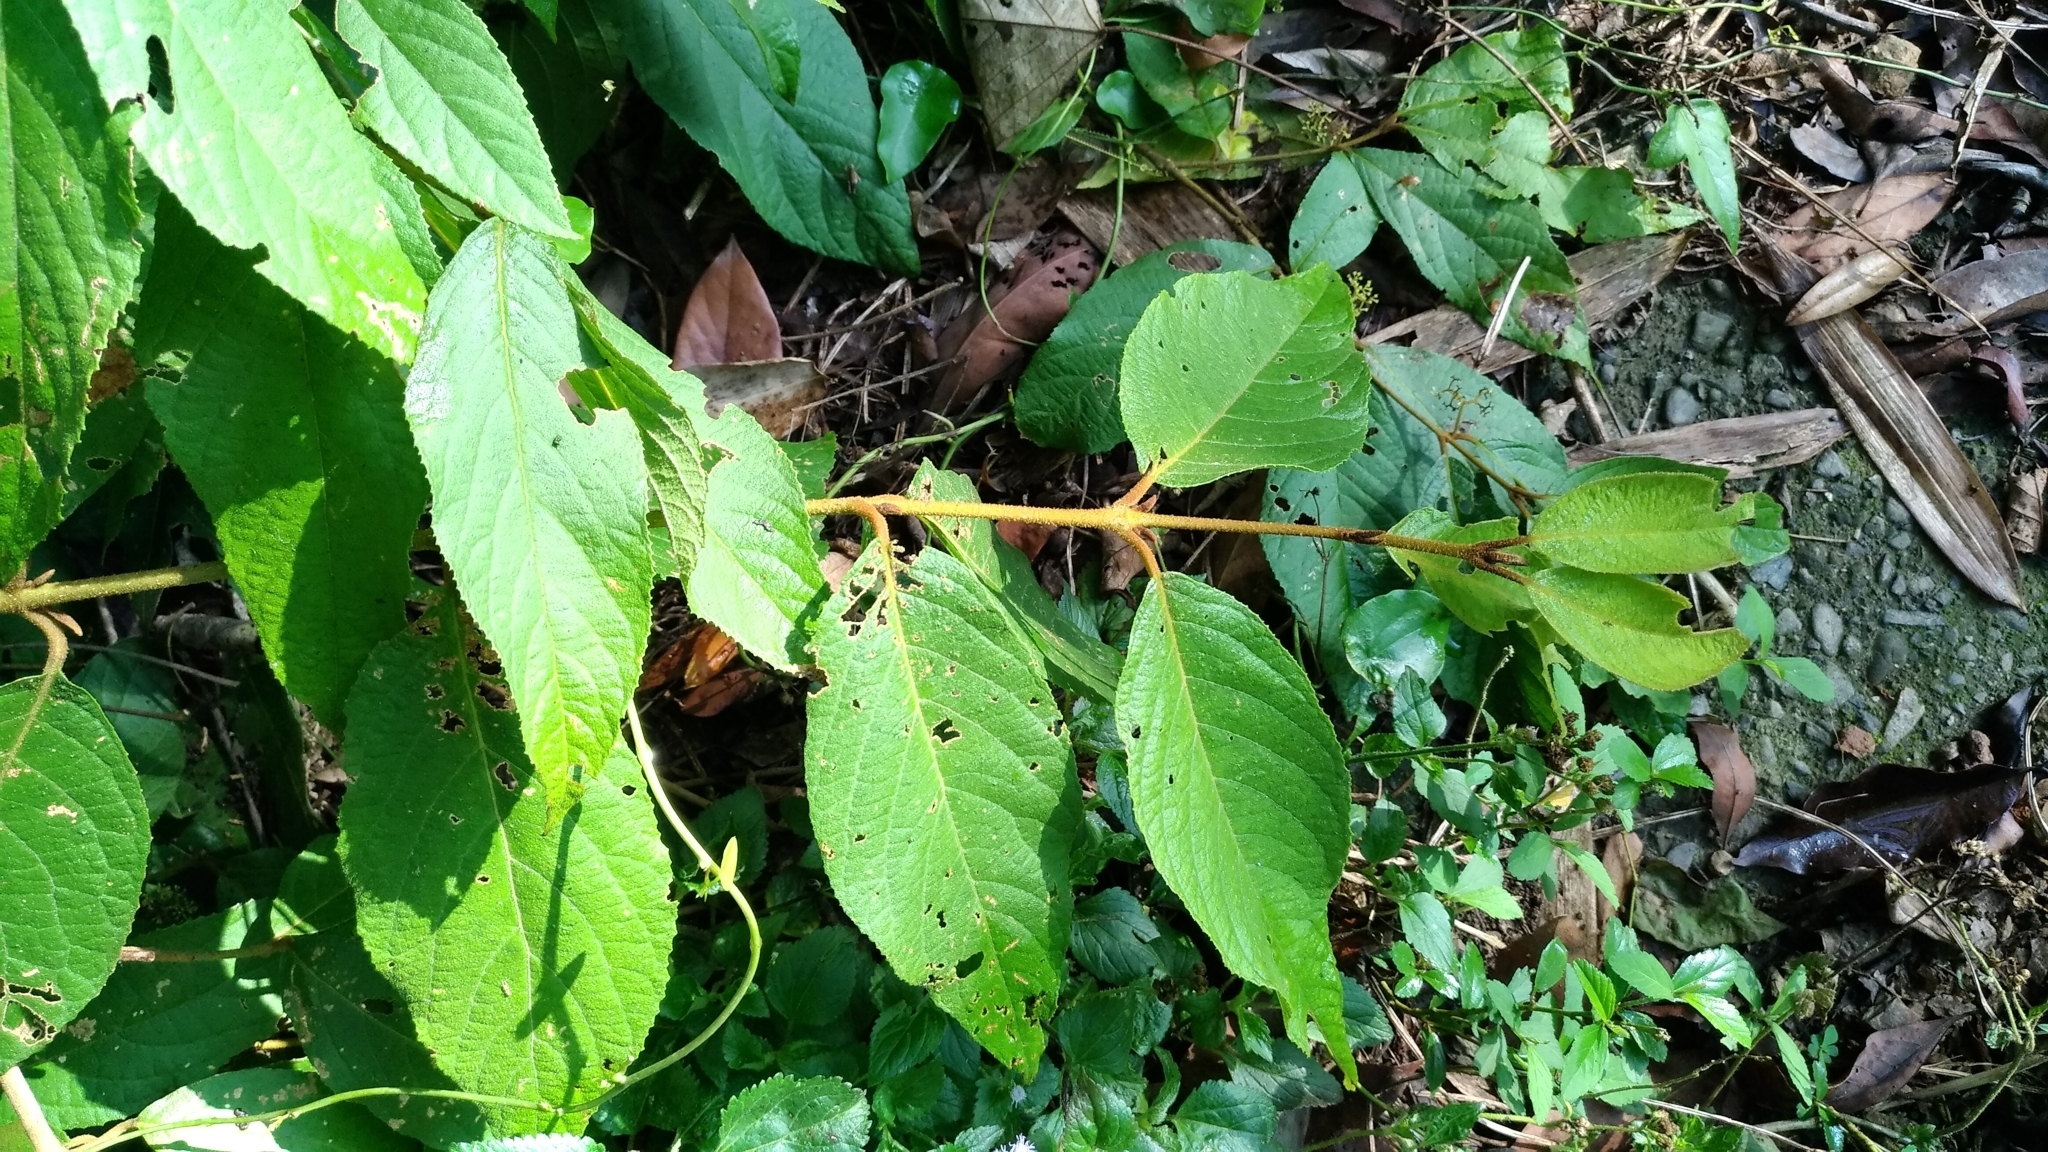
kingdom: Plantae
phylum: Tracheophyta
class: Magnoliopsida
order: Lamiales
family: Lamiaceae
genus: Callicarpa
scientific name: Callicarpa pedunculata
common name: Velvetleaf
